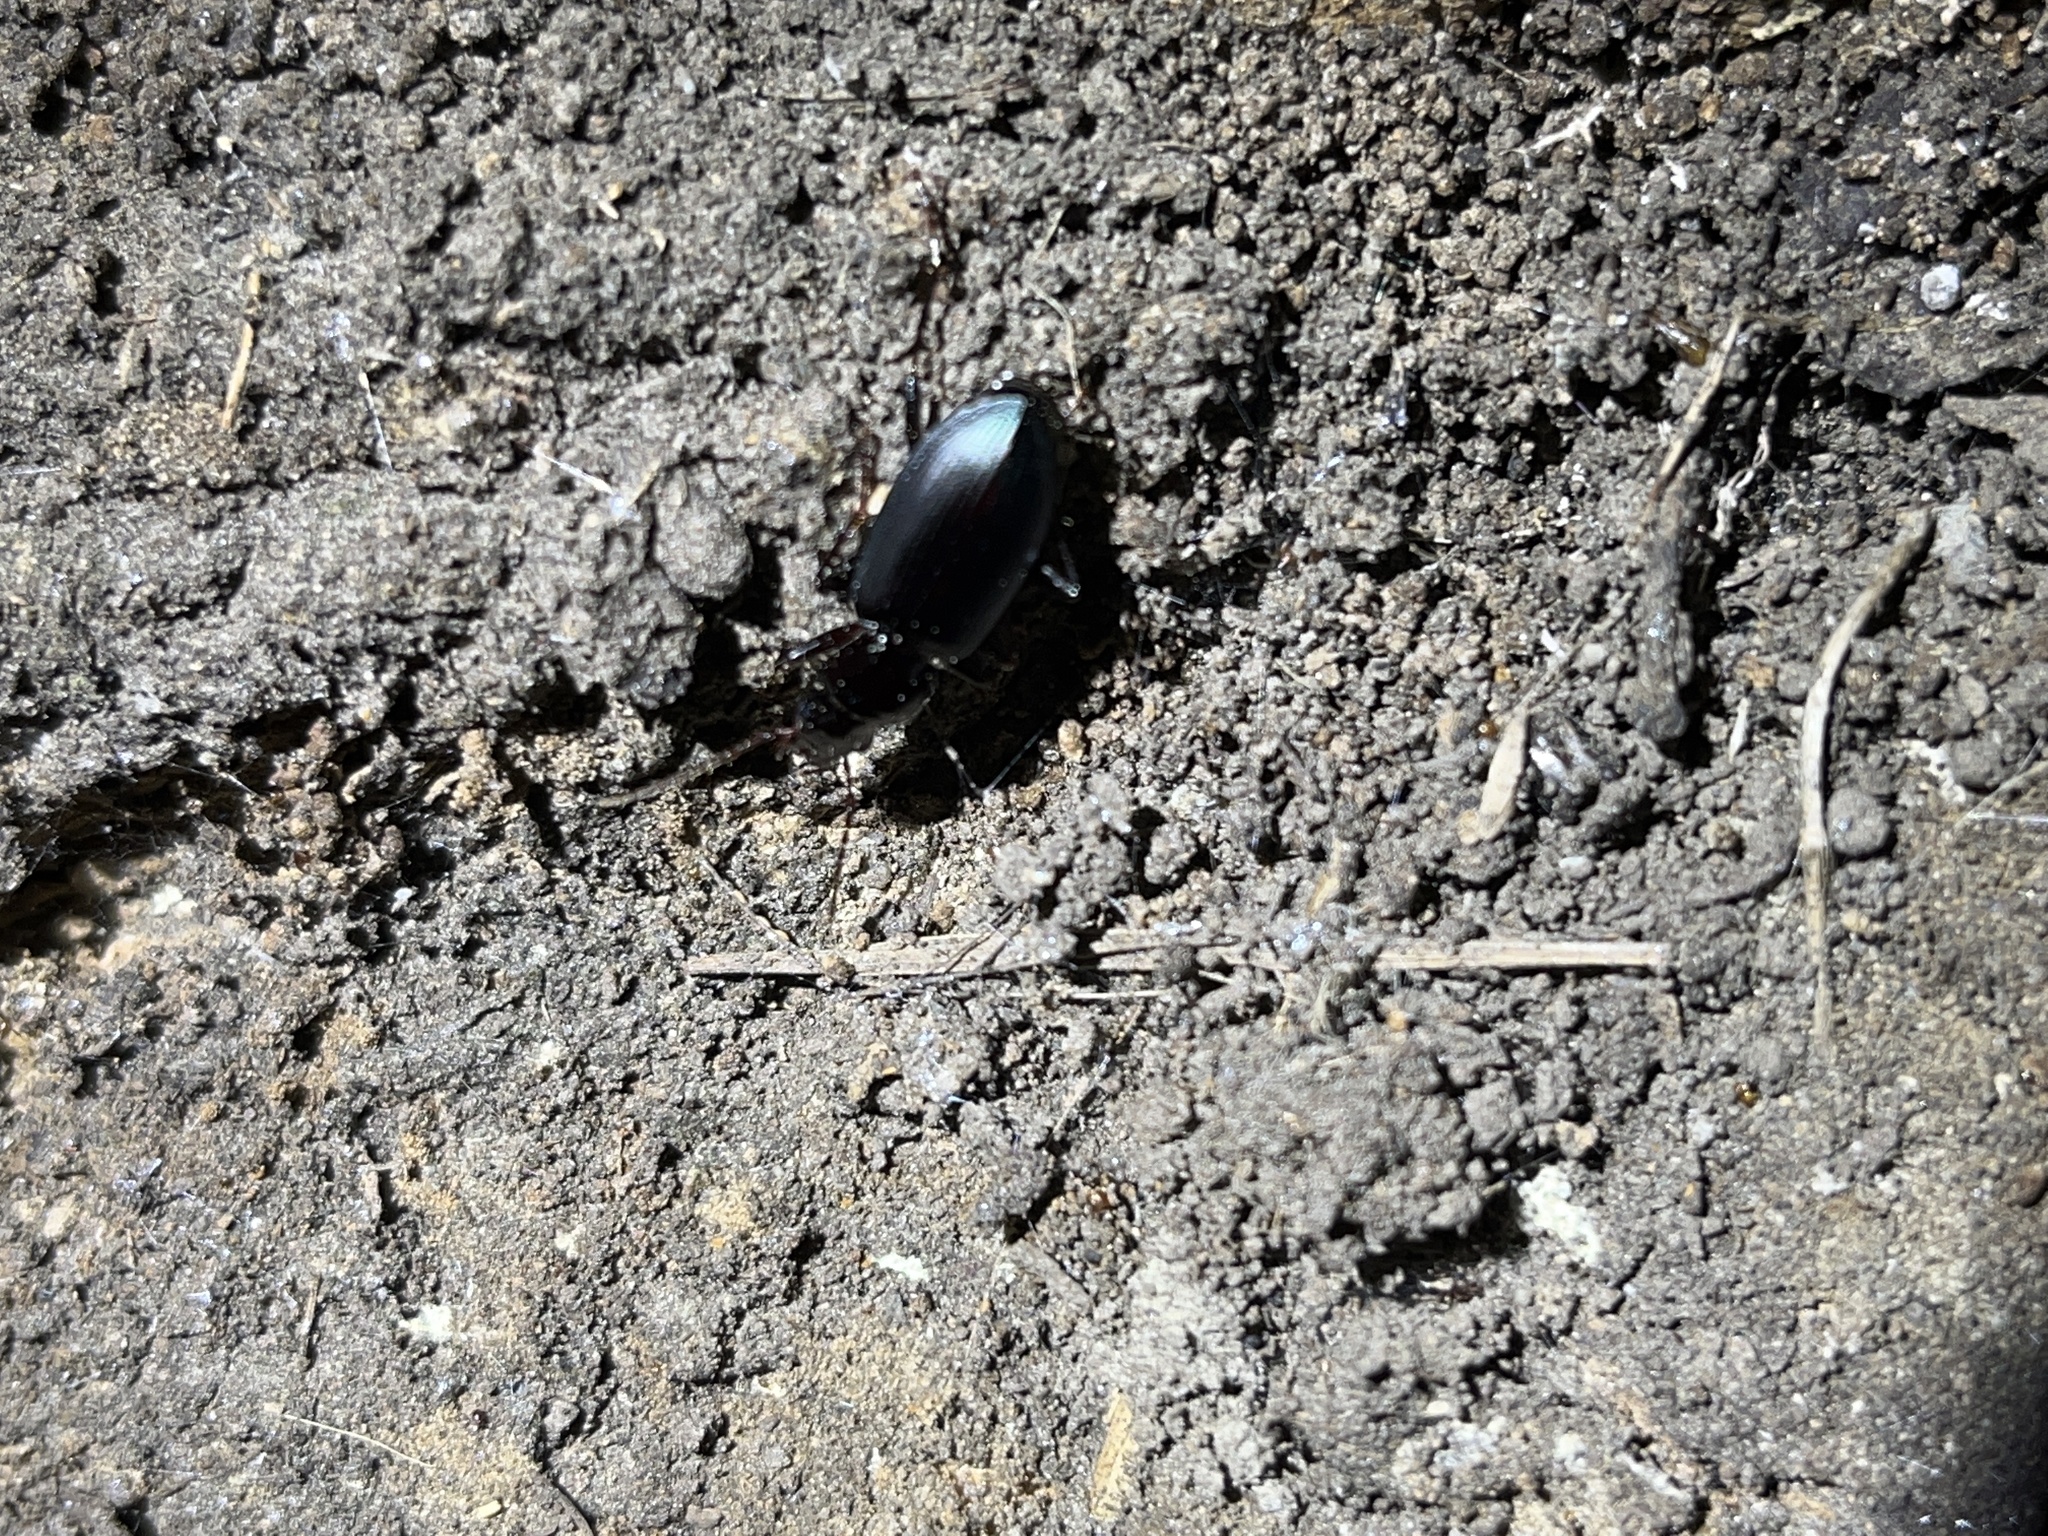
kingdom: Animalia
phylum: Arthropoda
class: Insecta
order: Coleoptera
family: Carabidae
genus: Laemostenus
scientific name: Laemostenus complanatus
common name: Cosmopolitan ground beetle
